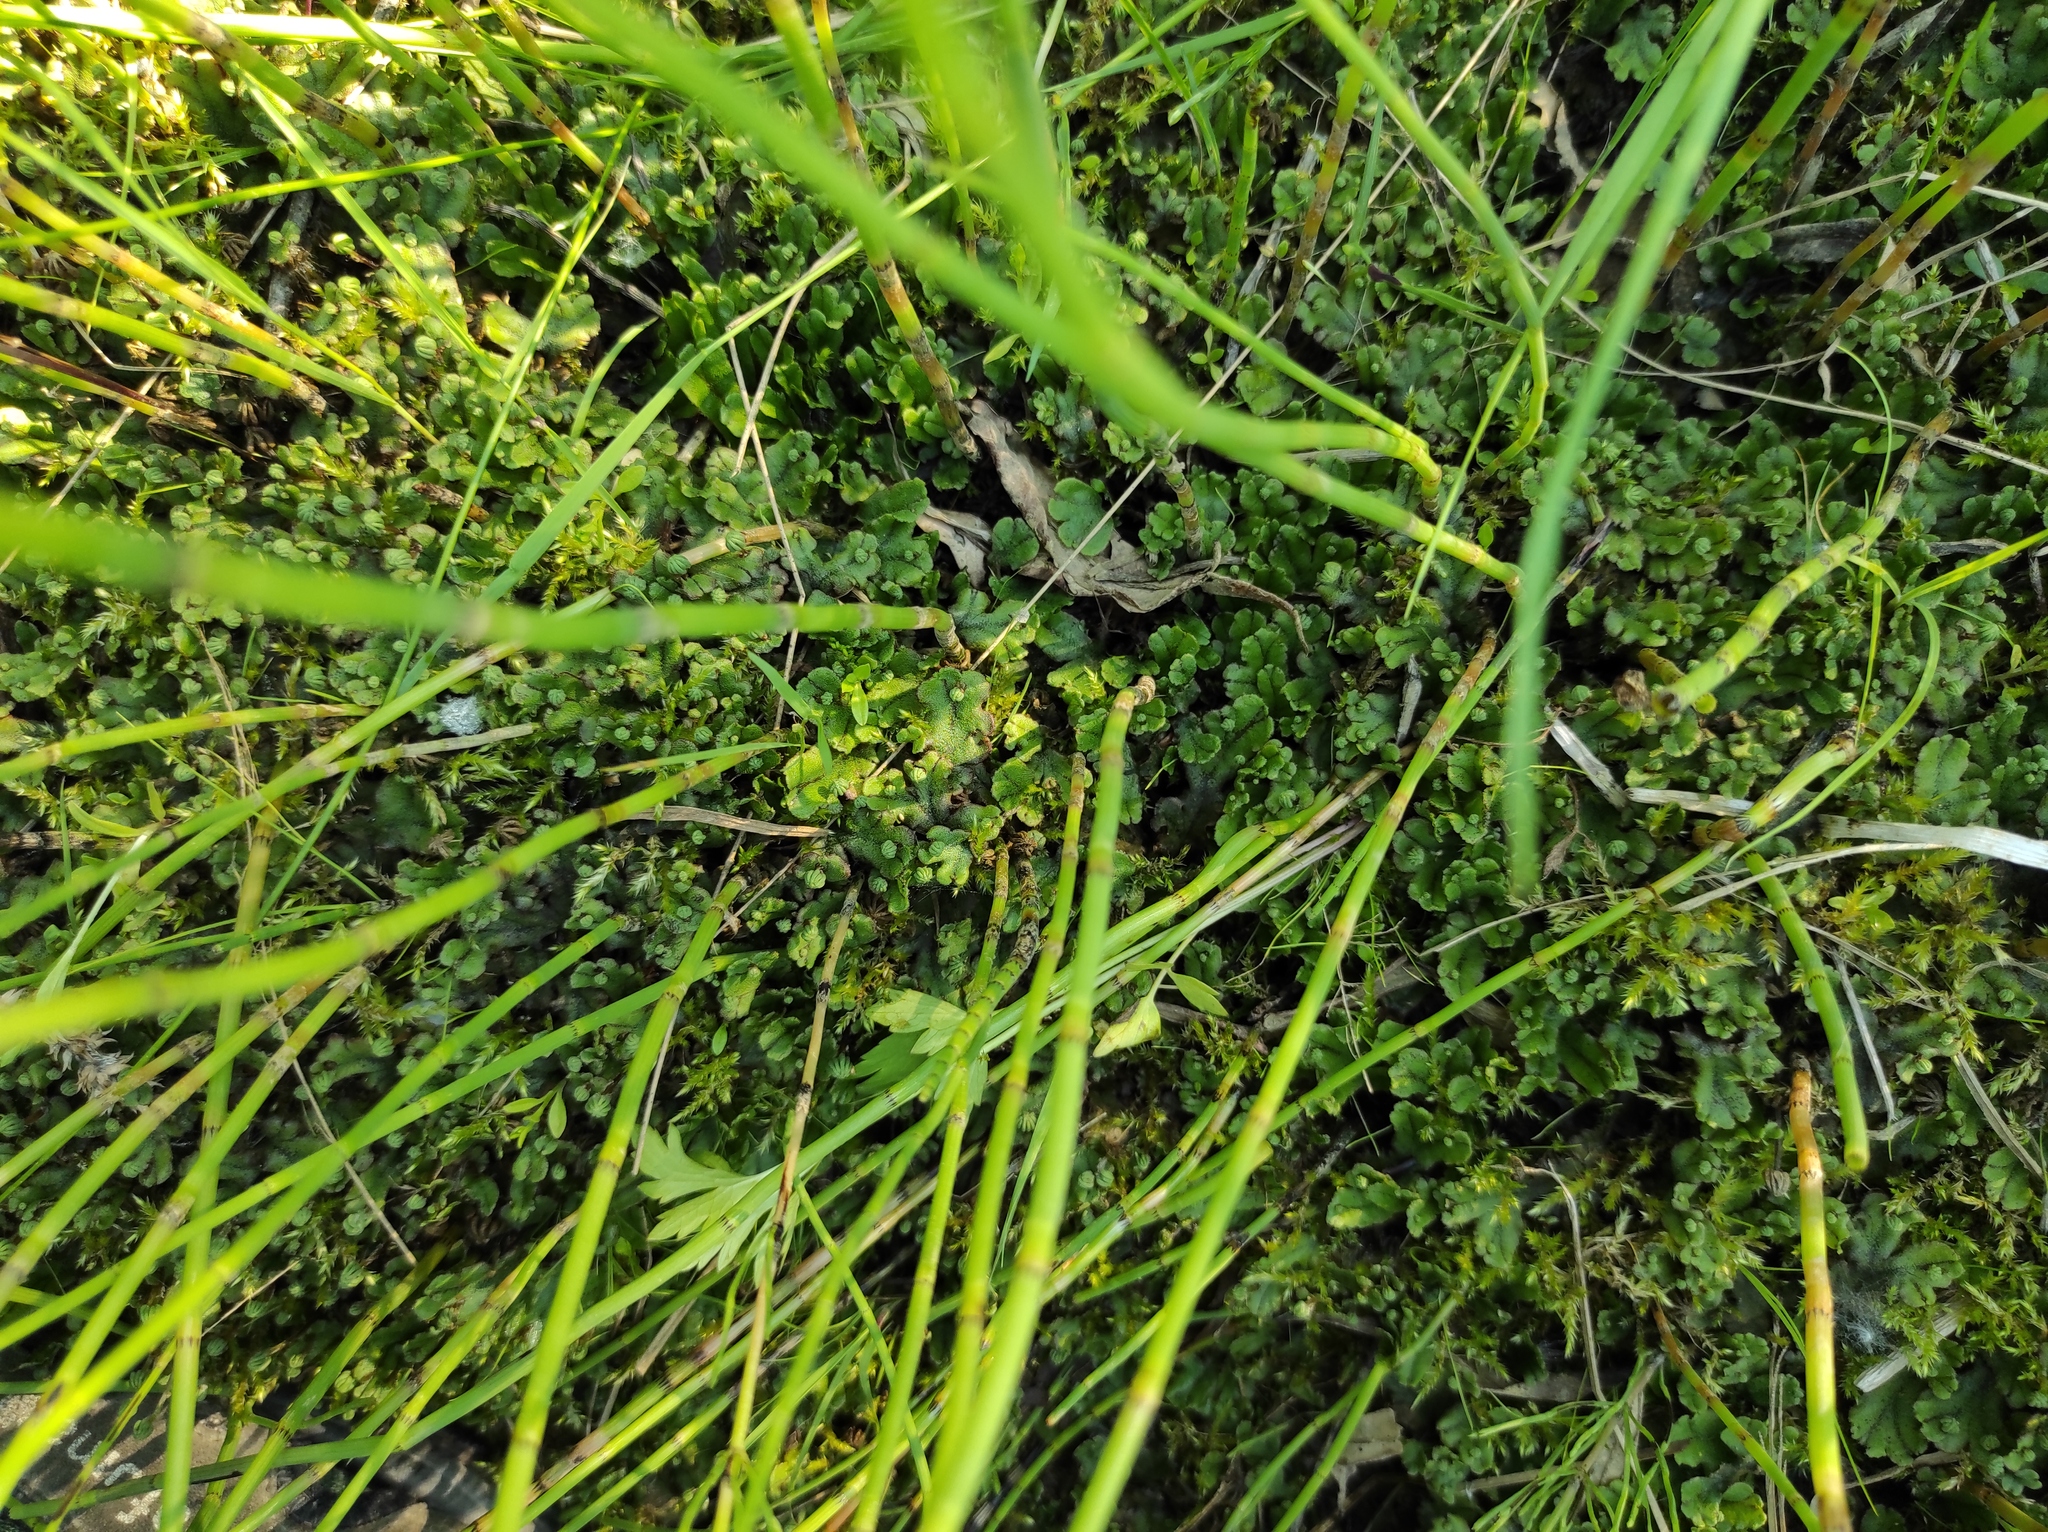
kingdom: Plantae
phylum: Marchantiophyta
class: Marchantiopsida
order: Marchantiales
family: Marchantiaceae
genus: Marchantia
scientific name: Marchantia polymorpha
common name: Common liverwort
